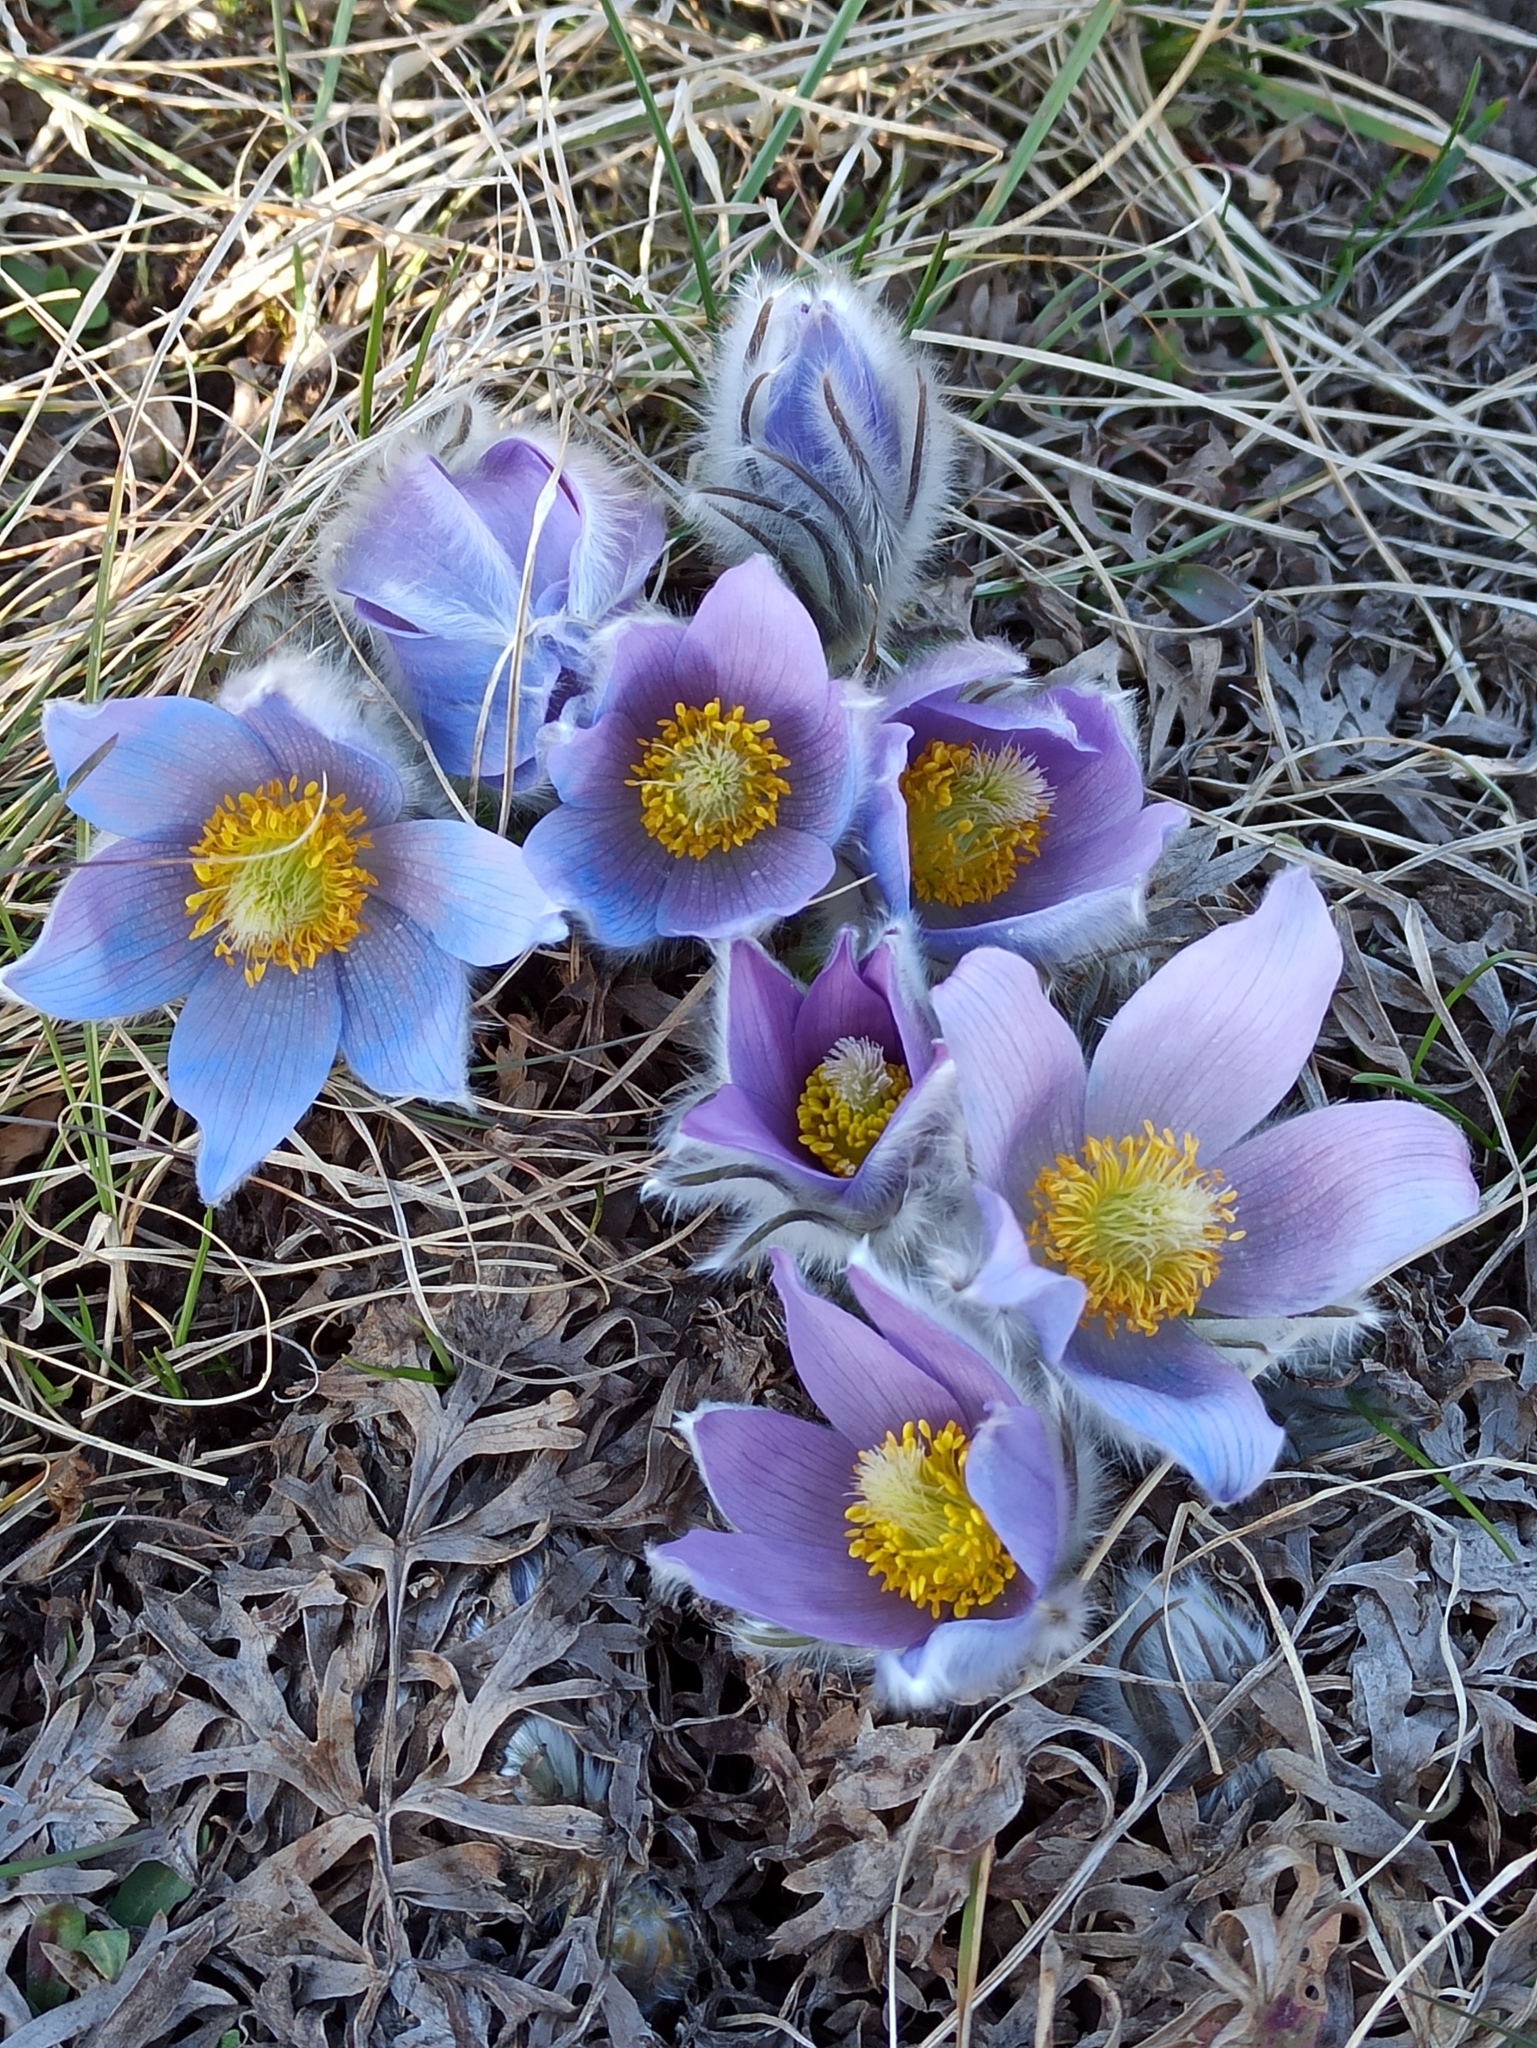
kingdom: Plantae
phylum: Tracheophyta
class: Magnoliopsida
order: Ranunculales
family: Ranunculaceae
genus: Pulsatilla
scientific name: Pulsatilla grandis
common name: Greater pasque flower
